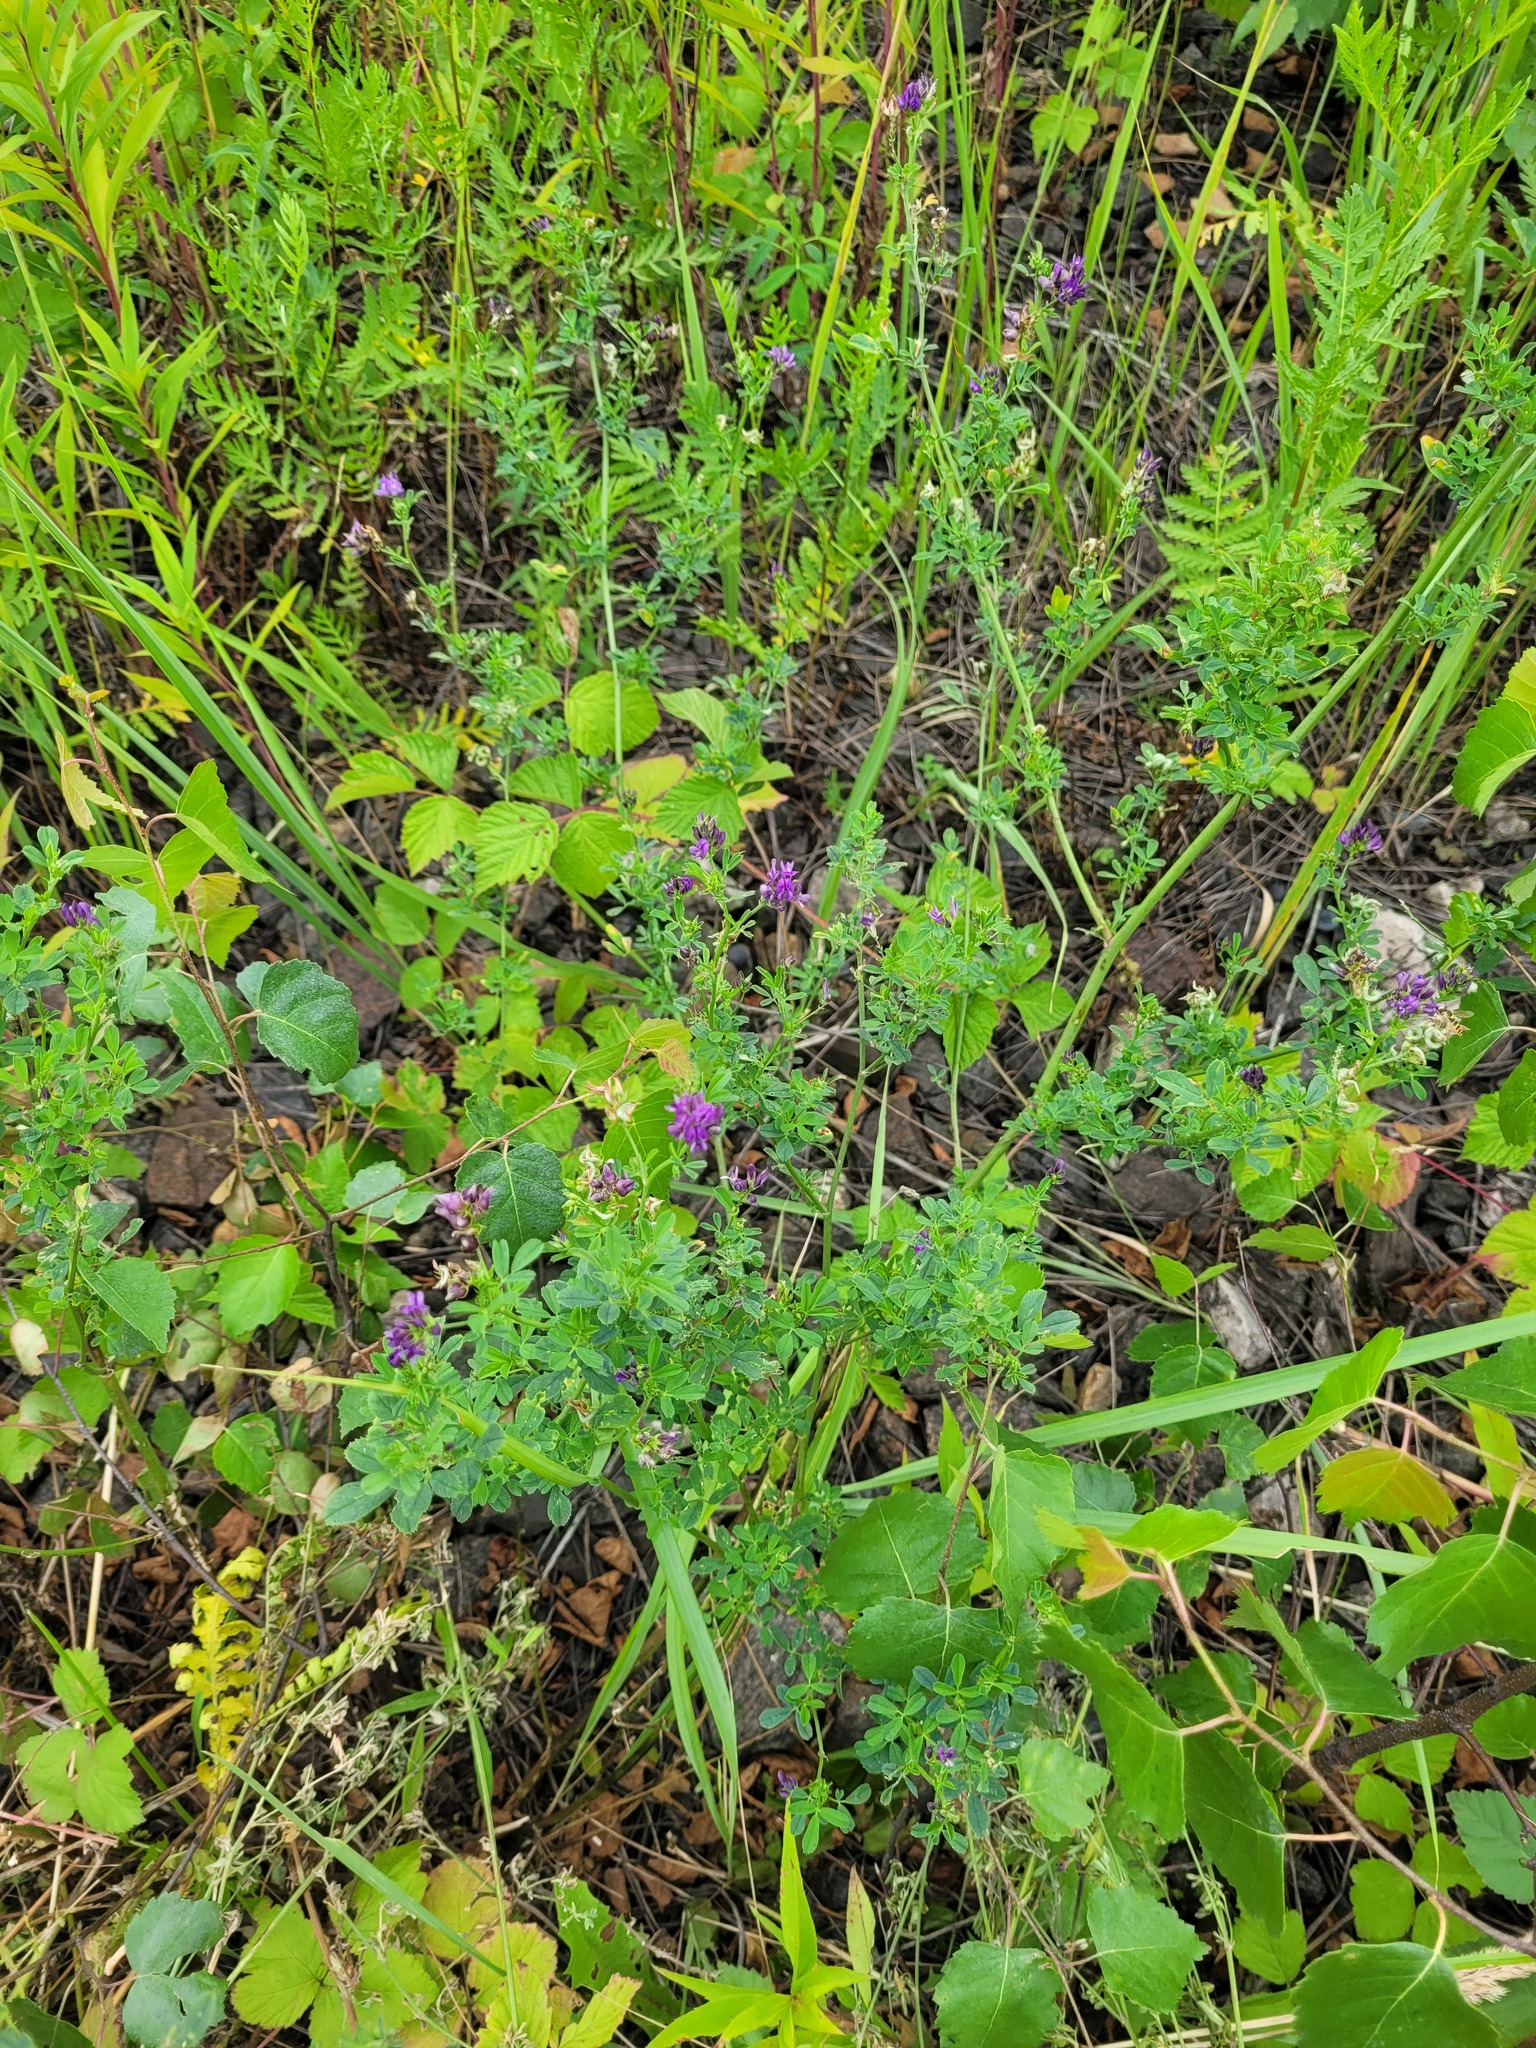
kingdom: Plantae
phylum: Tracheophyta
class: Magnoliopsida
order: Fabales
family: Fabaceae
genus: Medicago
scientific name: Medicago sativa
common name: Alfalfa
